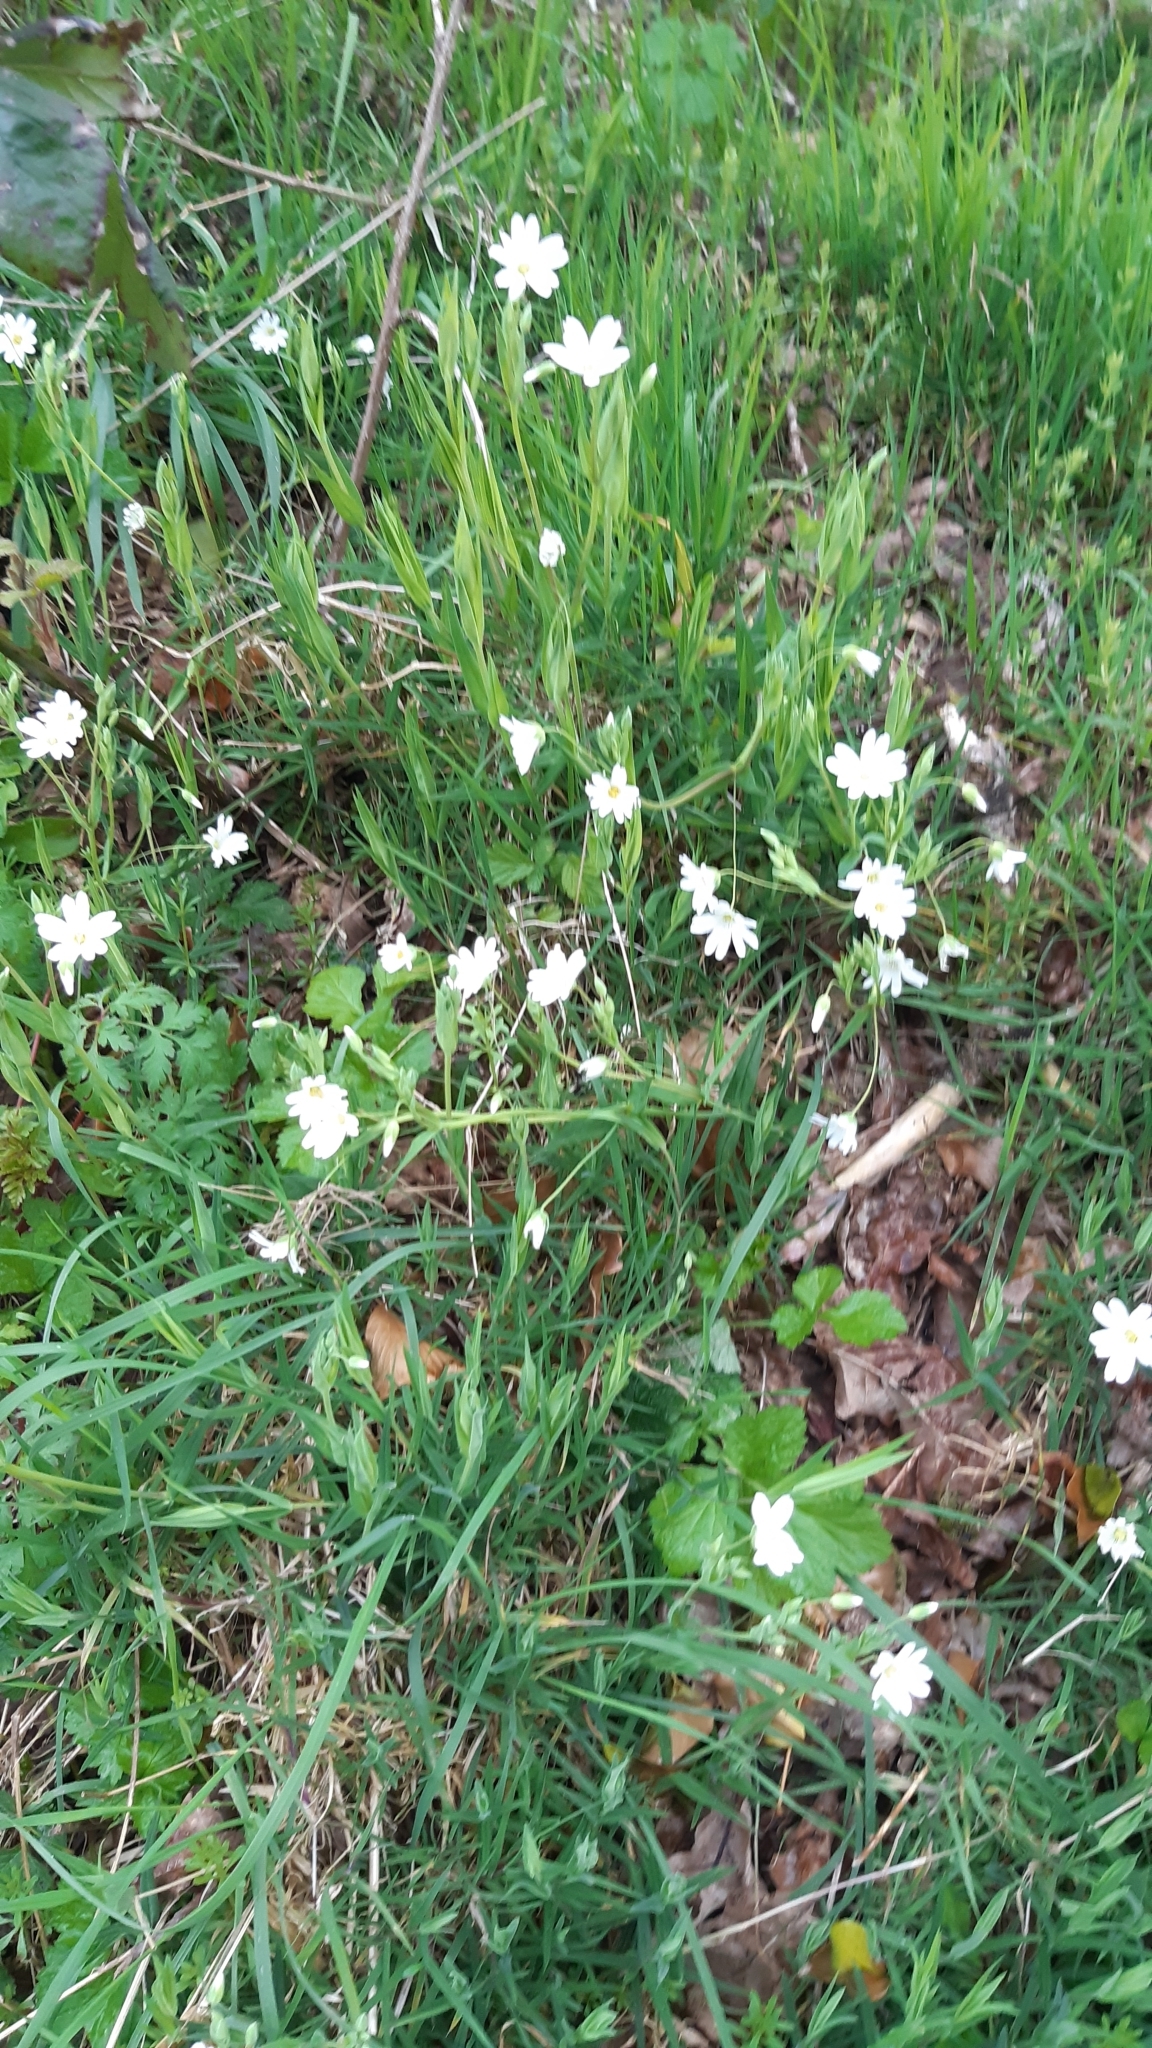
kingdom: Plantae
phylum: Tracheophyta
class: Magnoliopsida
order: Caryophyllales
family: Caryophyllaceae
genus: Rabelera
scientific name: Rabelera holostea
